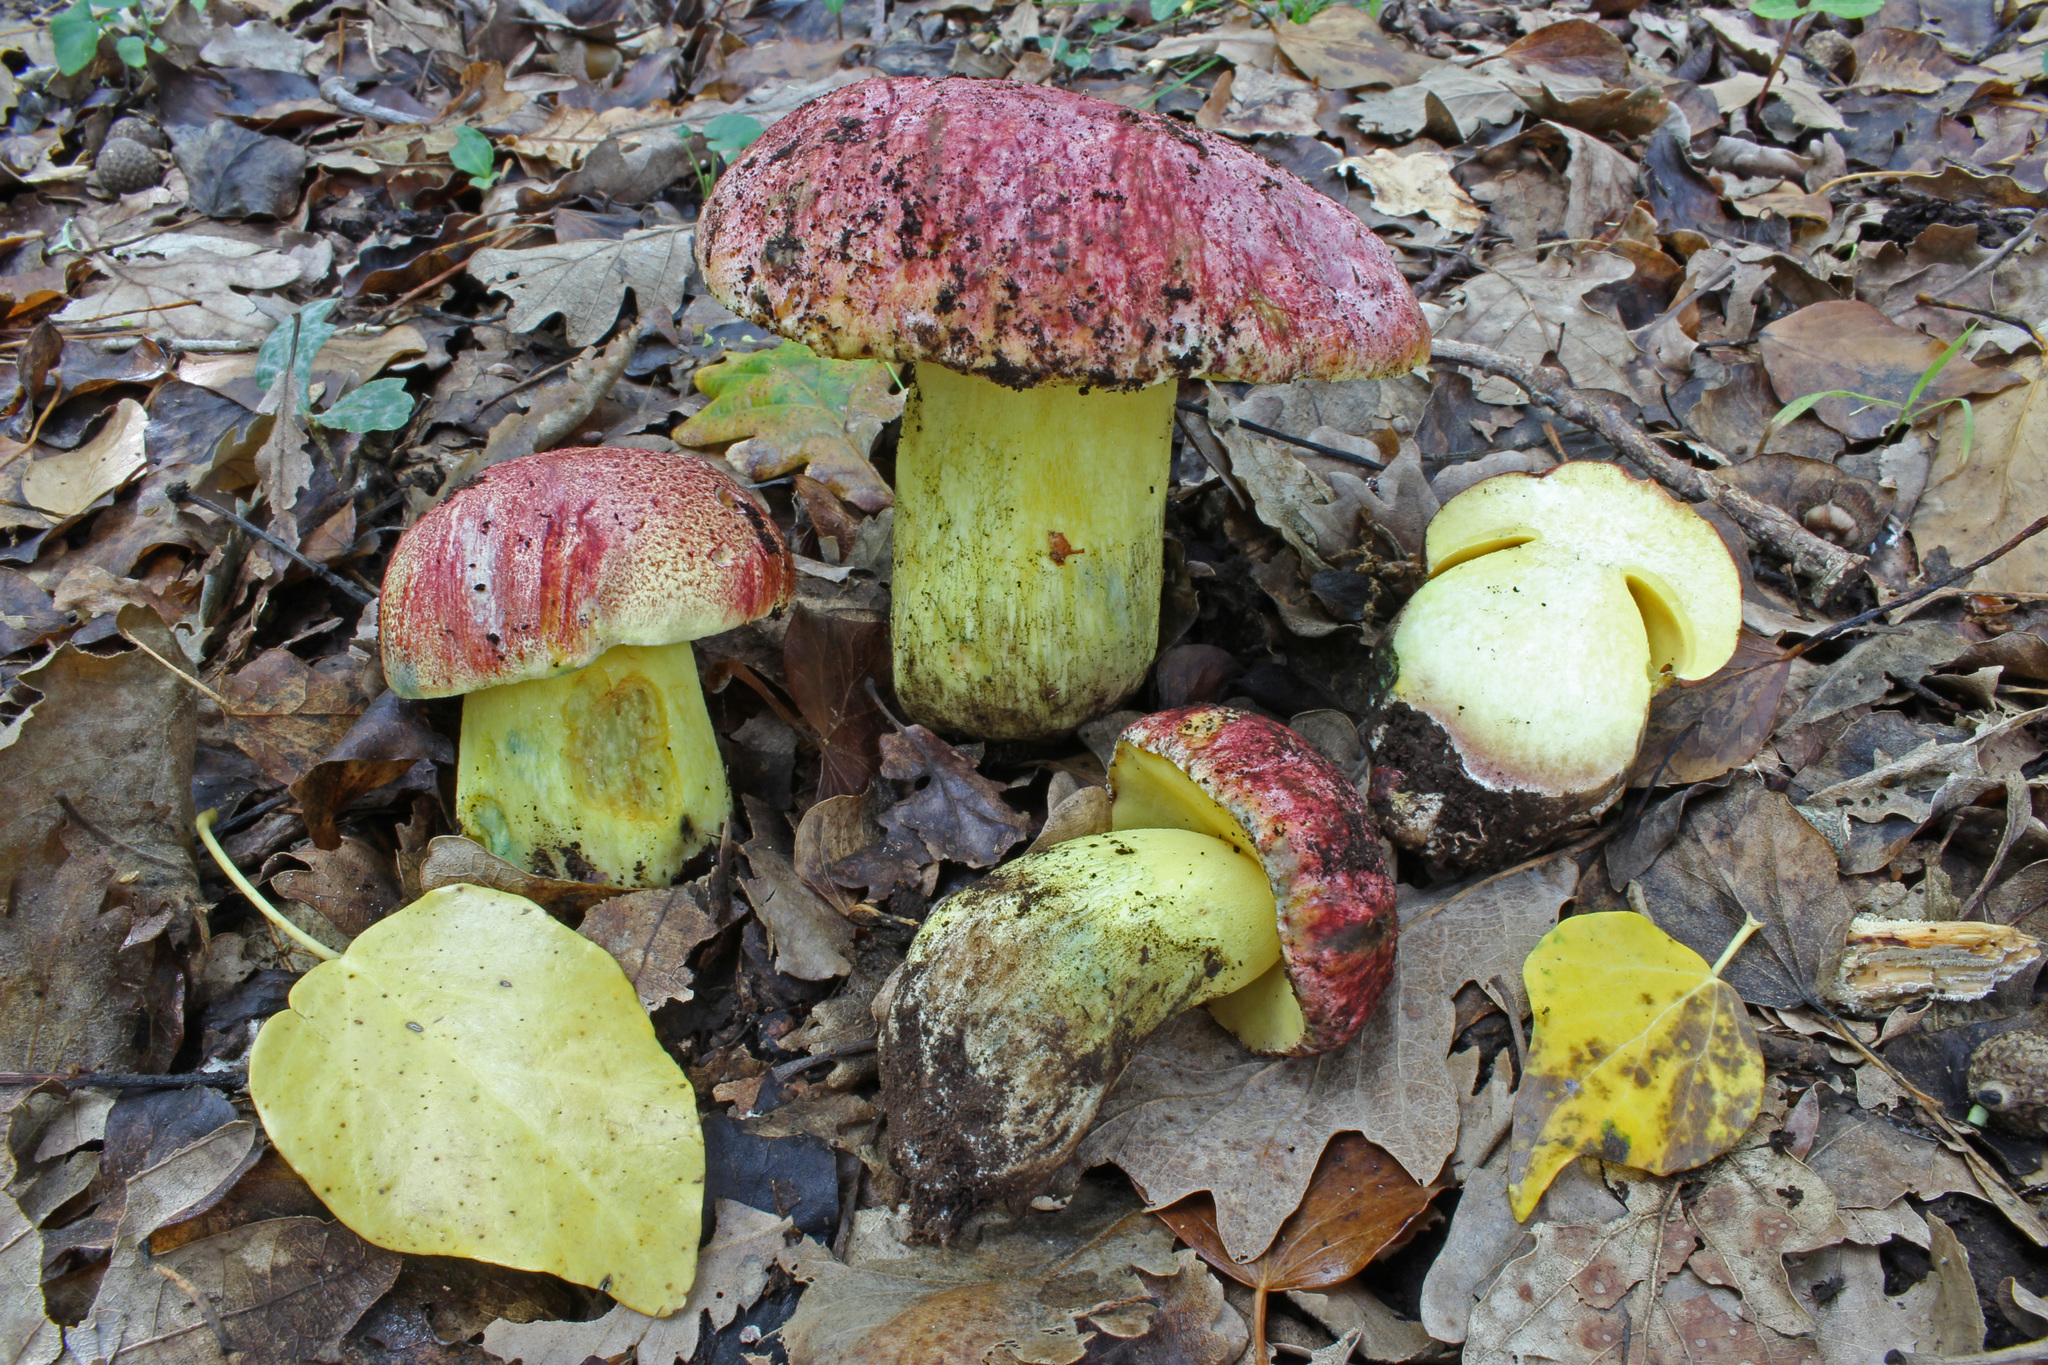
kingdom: Fungi
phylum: Basidiomycota
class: Agaricomycetes
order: Boletales
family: Boletaceae
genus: Butyriboletus
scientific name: Butyriboletus regius
